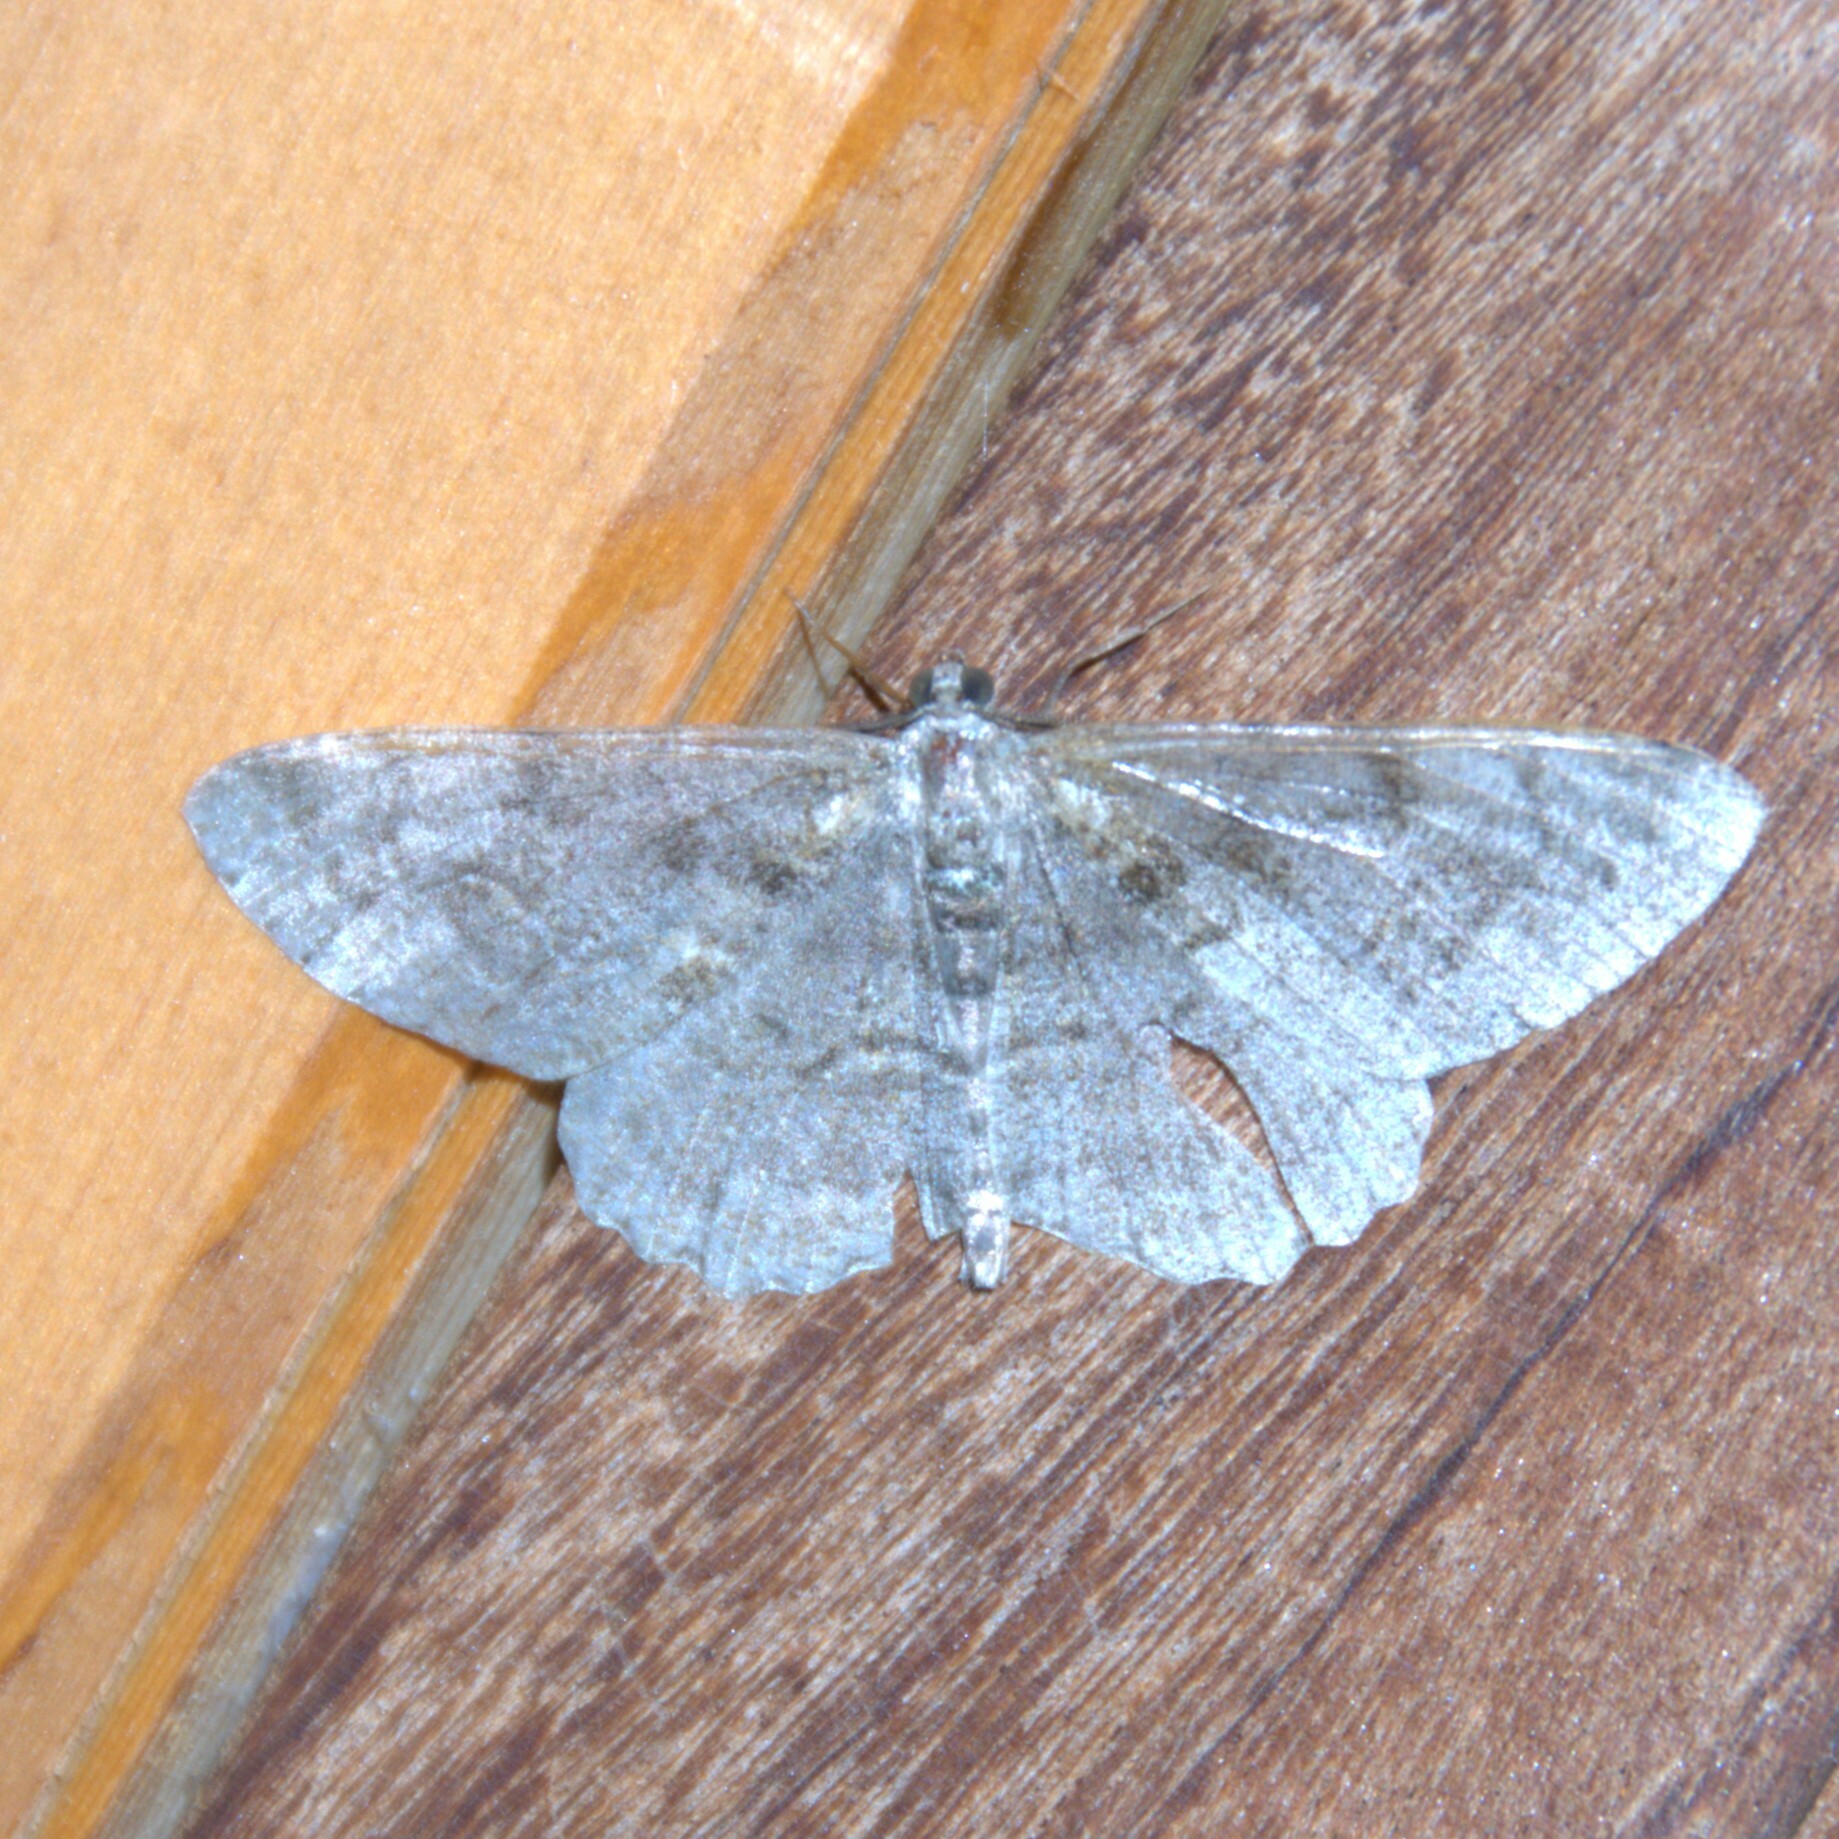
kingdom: Animalia
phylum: Arthropoda
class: Insecta
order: Lepidoptera
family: Geometridae
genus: Alcis
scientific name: Alcis repandata
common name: Mottled beauty
